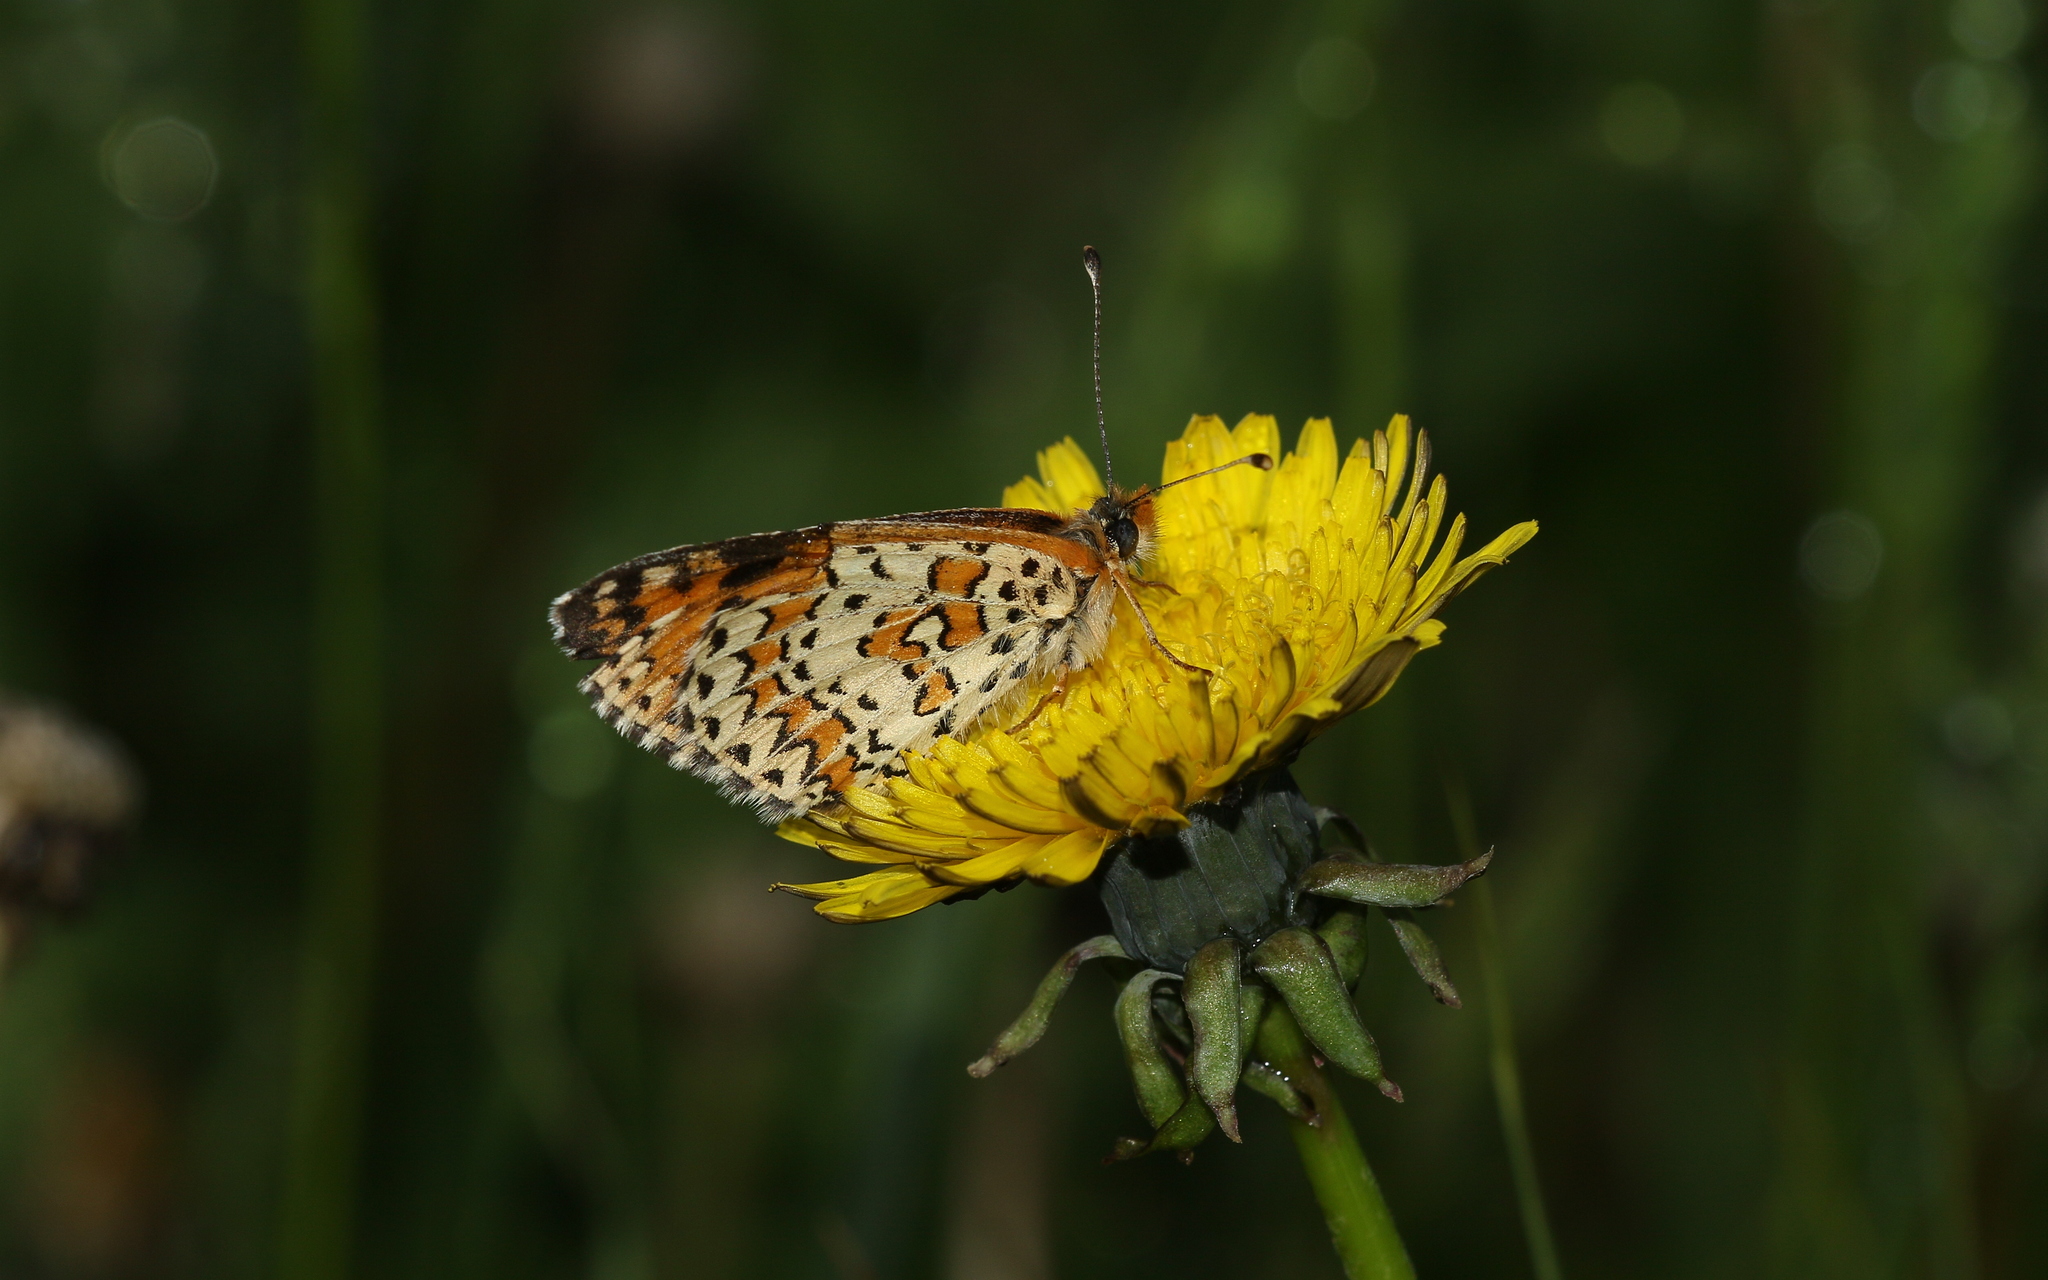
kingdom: Animalia
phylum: Arthropoda
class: Insecta
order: Lepidoptera
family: Nymphalidae
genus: Melitaea
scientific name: Melitaea trivia
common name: Lesser spotted fritillary
